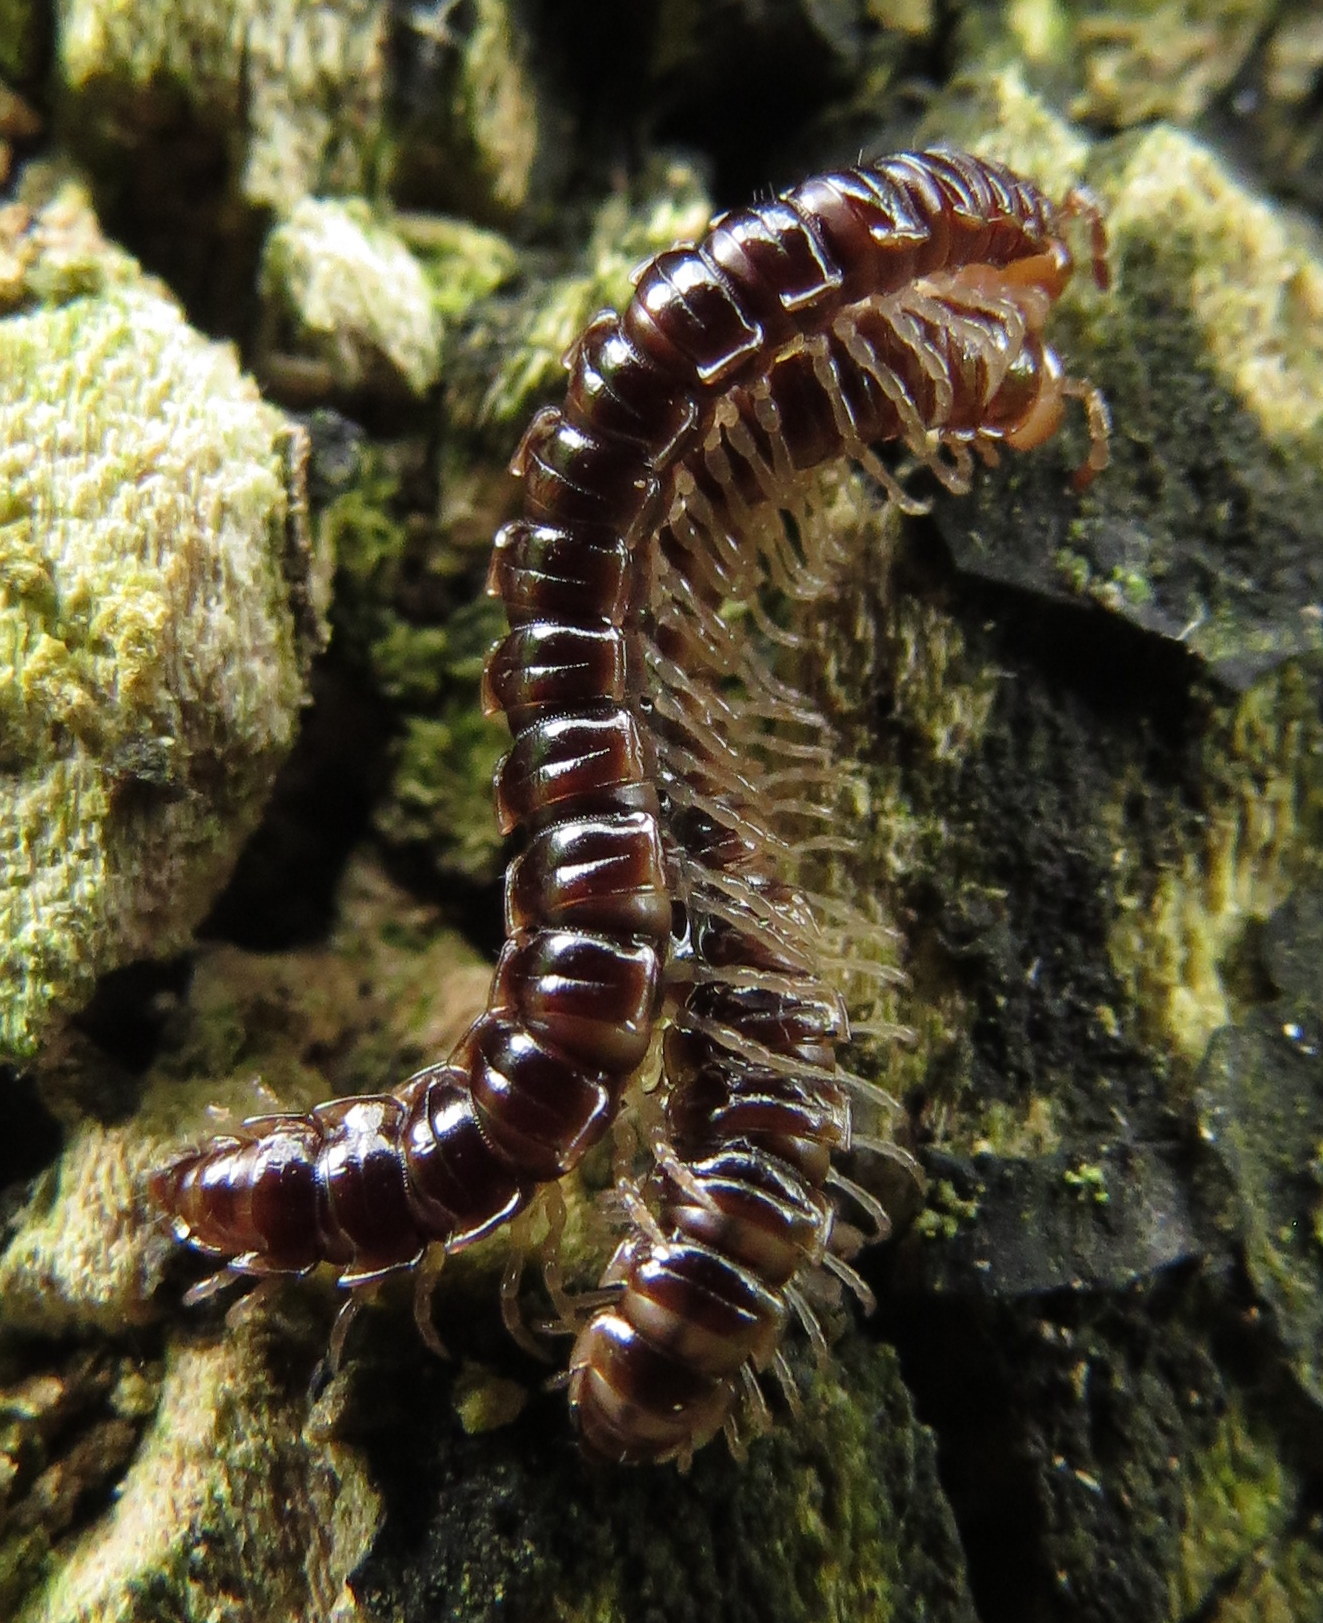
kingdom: Animalia
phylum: Arthropoda
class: Diplopoda
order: Polydesmida
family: Paradoxosomatidae
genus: Oxidus
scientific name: Oxidus gracilis
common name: Greenhouse millipede
